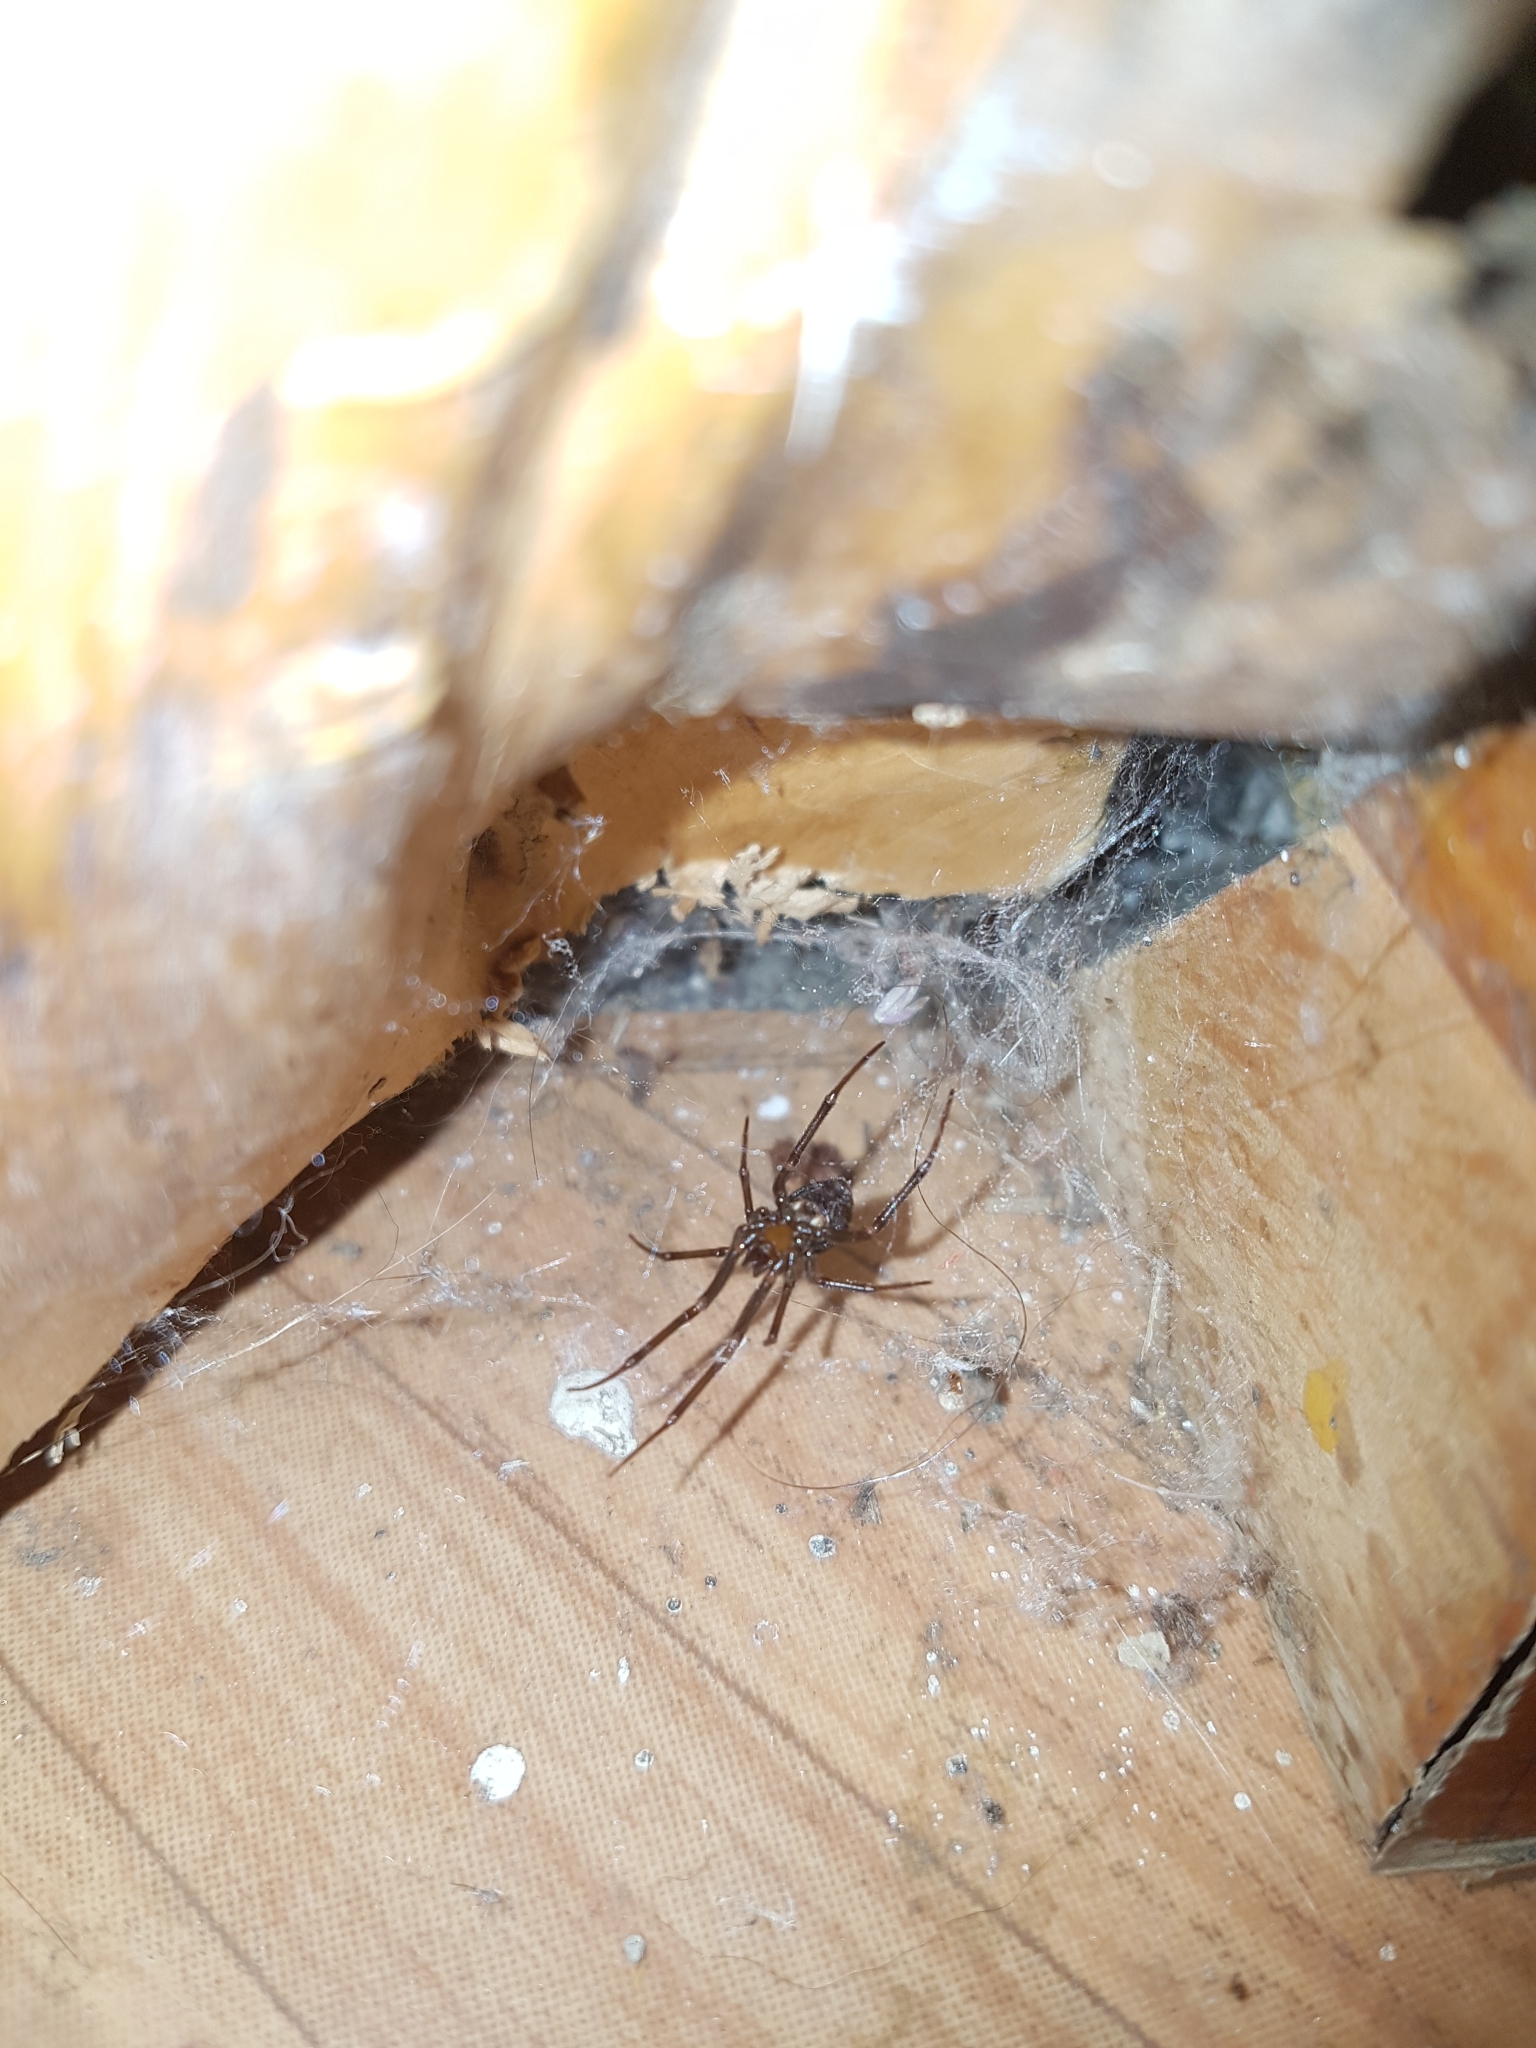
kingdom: Animalia
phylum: Arthropoda
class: Arachnida
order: Araneae
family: Theridiidae
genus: Steatoda
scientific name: Steatoda grossa
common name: False black widow
